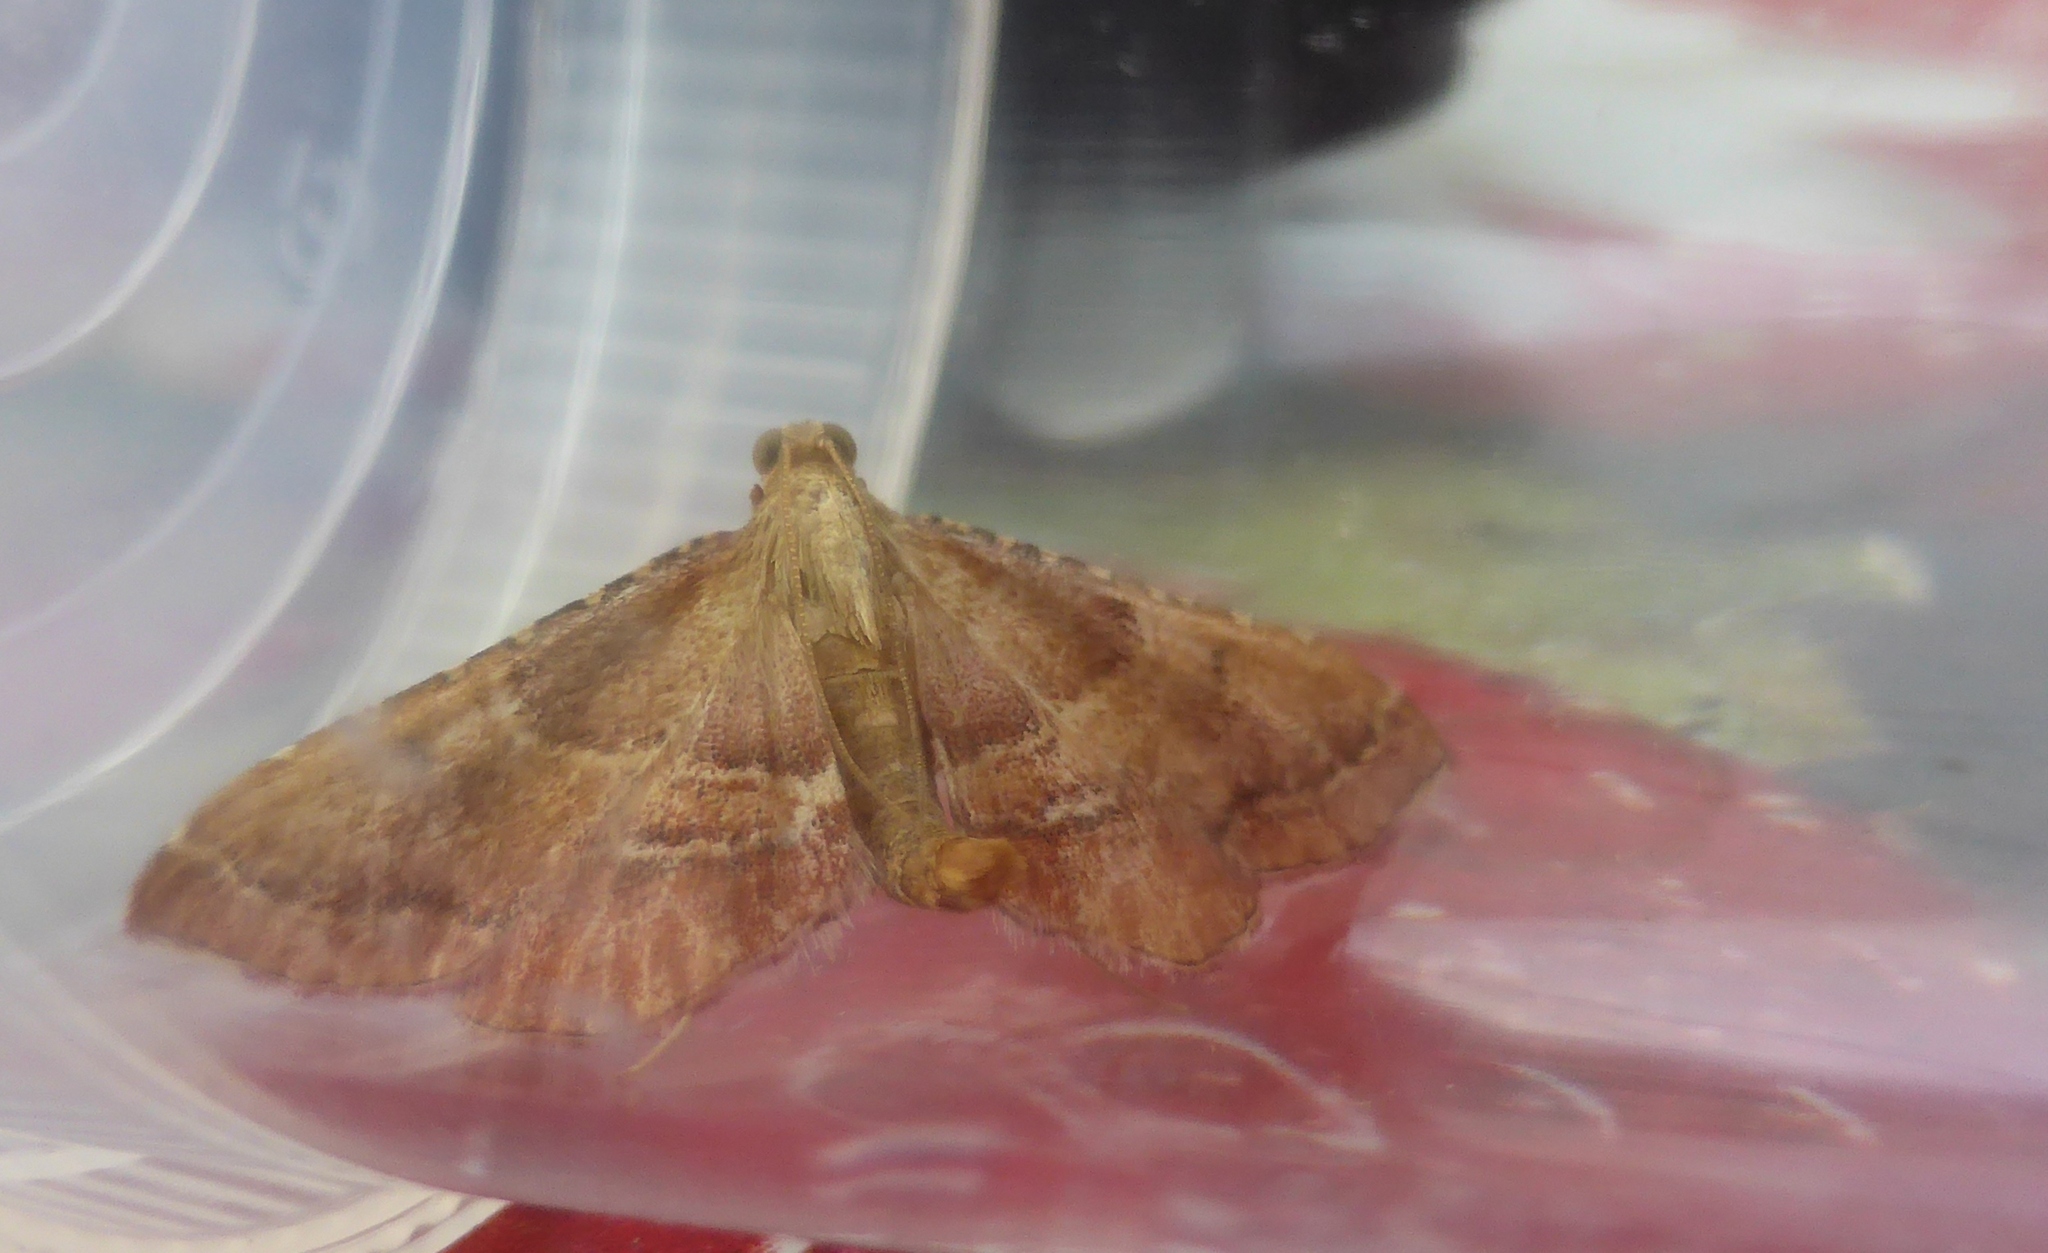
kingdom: Animalia
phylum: Arthropoda
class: Insecta
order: Lepidoptera
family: Pyralidae
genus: Endotricha
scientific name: Endotricha flammealis
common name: Rosy tabby
